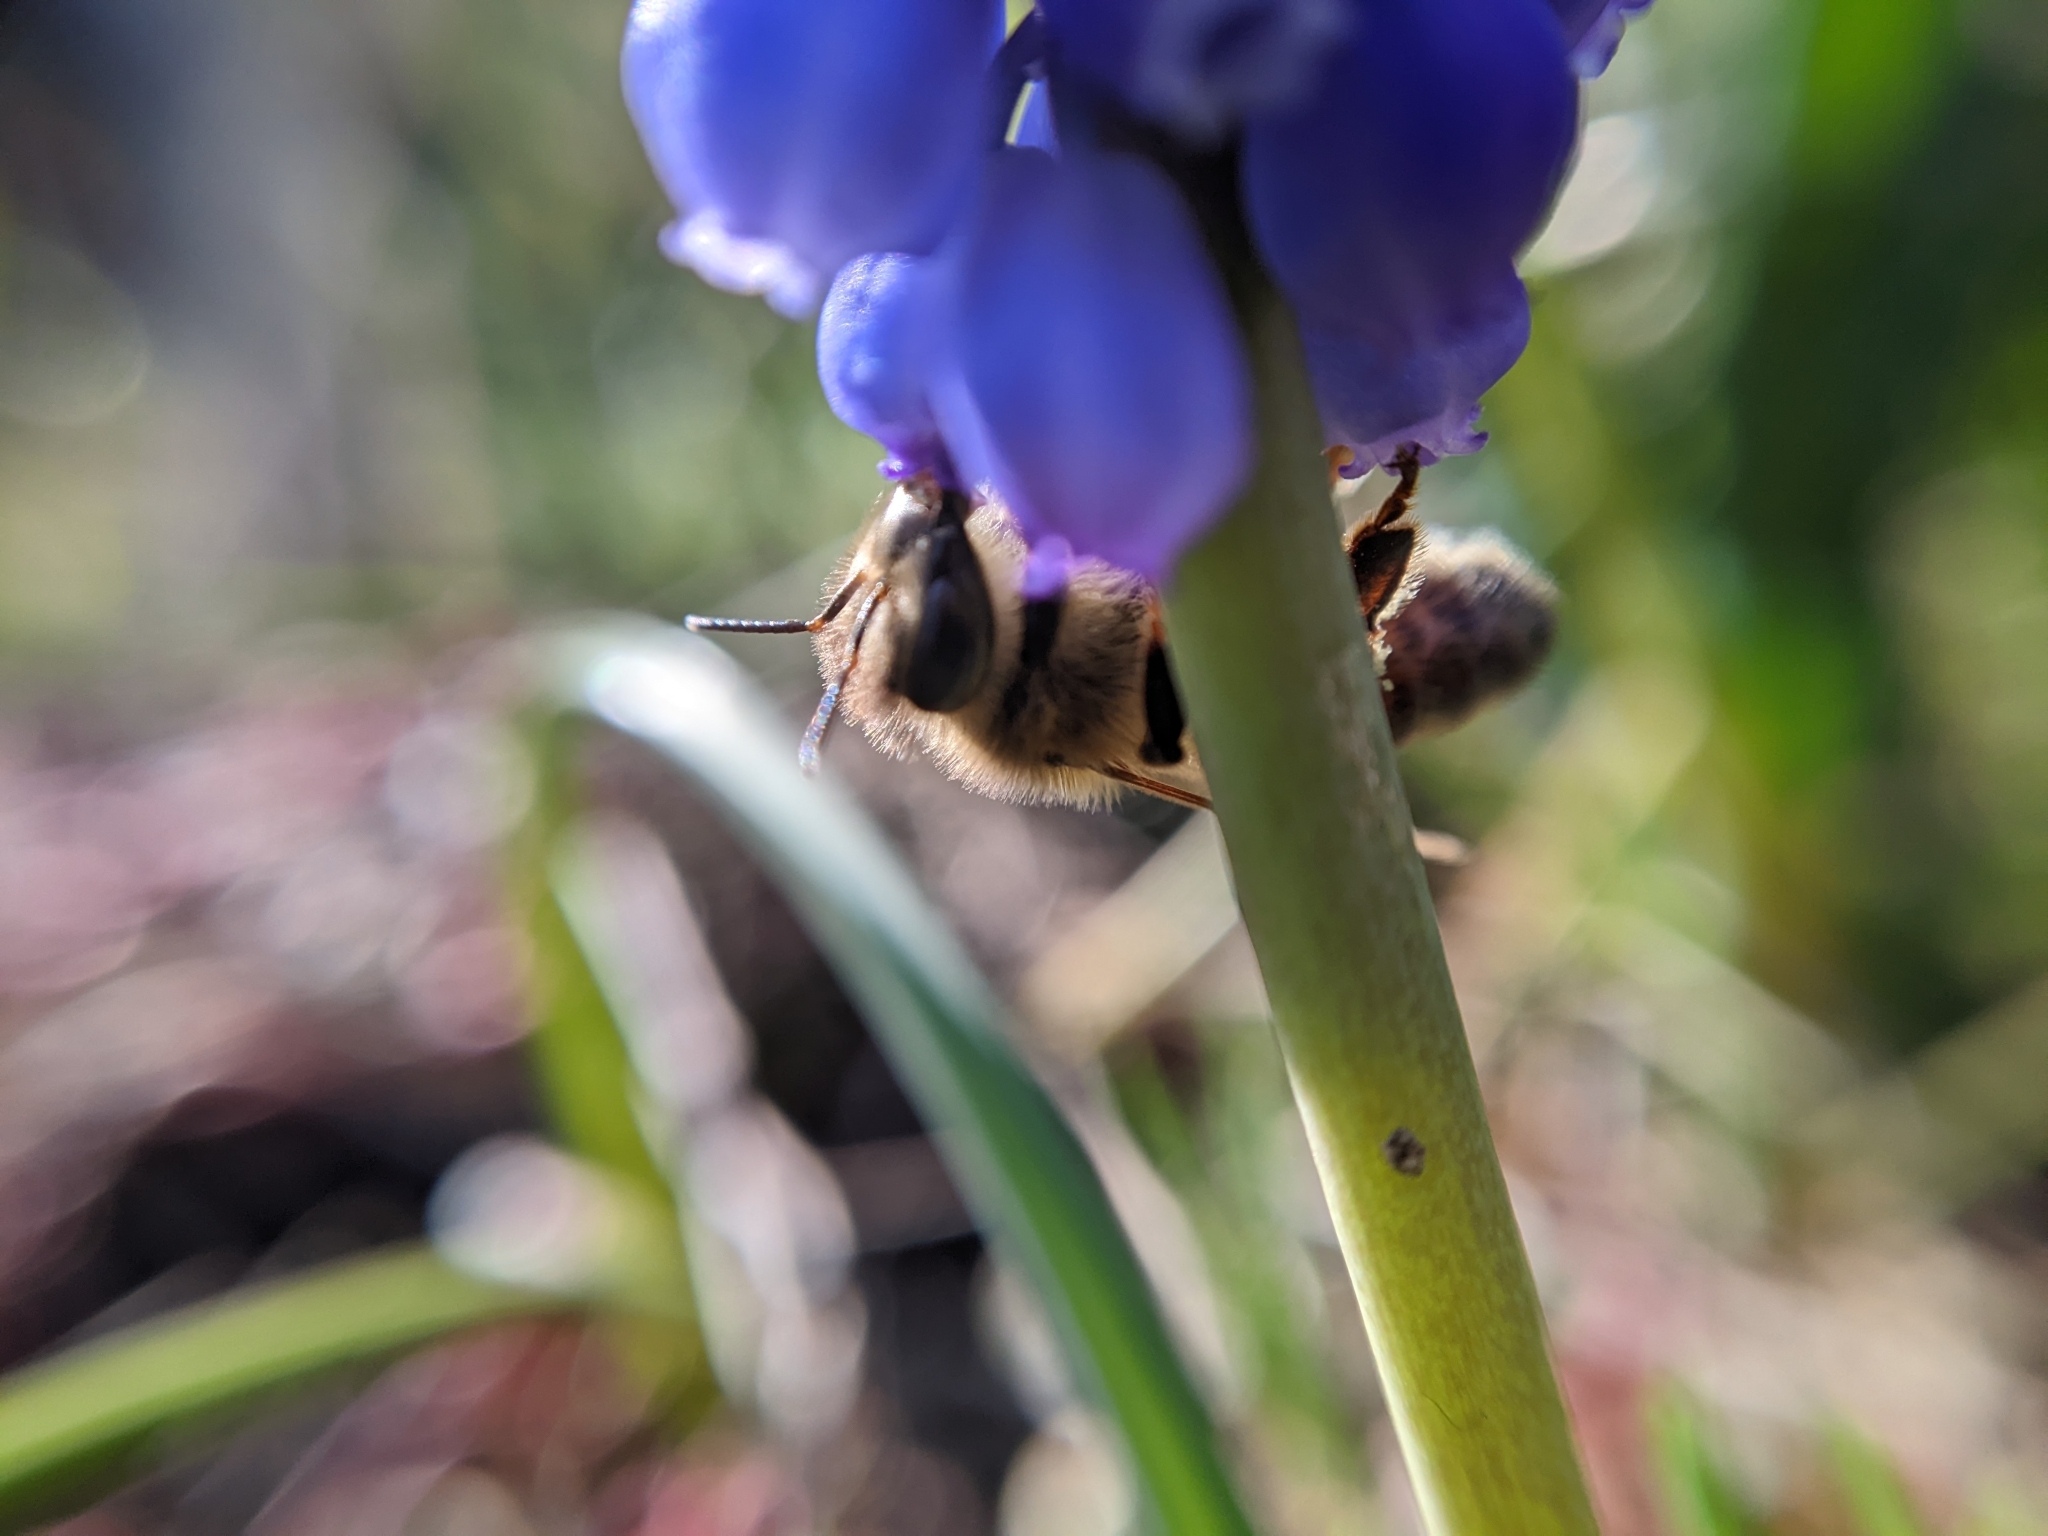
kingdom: Animalia
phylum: Arthropoda
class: Insecta
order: Hymenoptera
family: Apidae
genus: Apis
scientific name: Apis mellifera
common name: Honey bee
